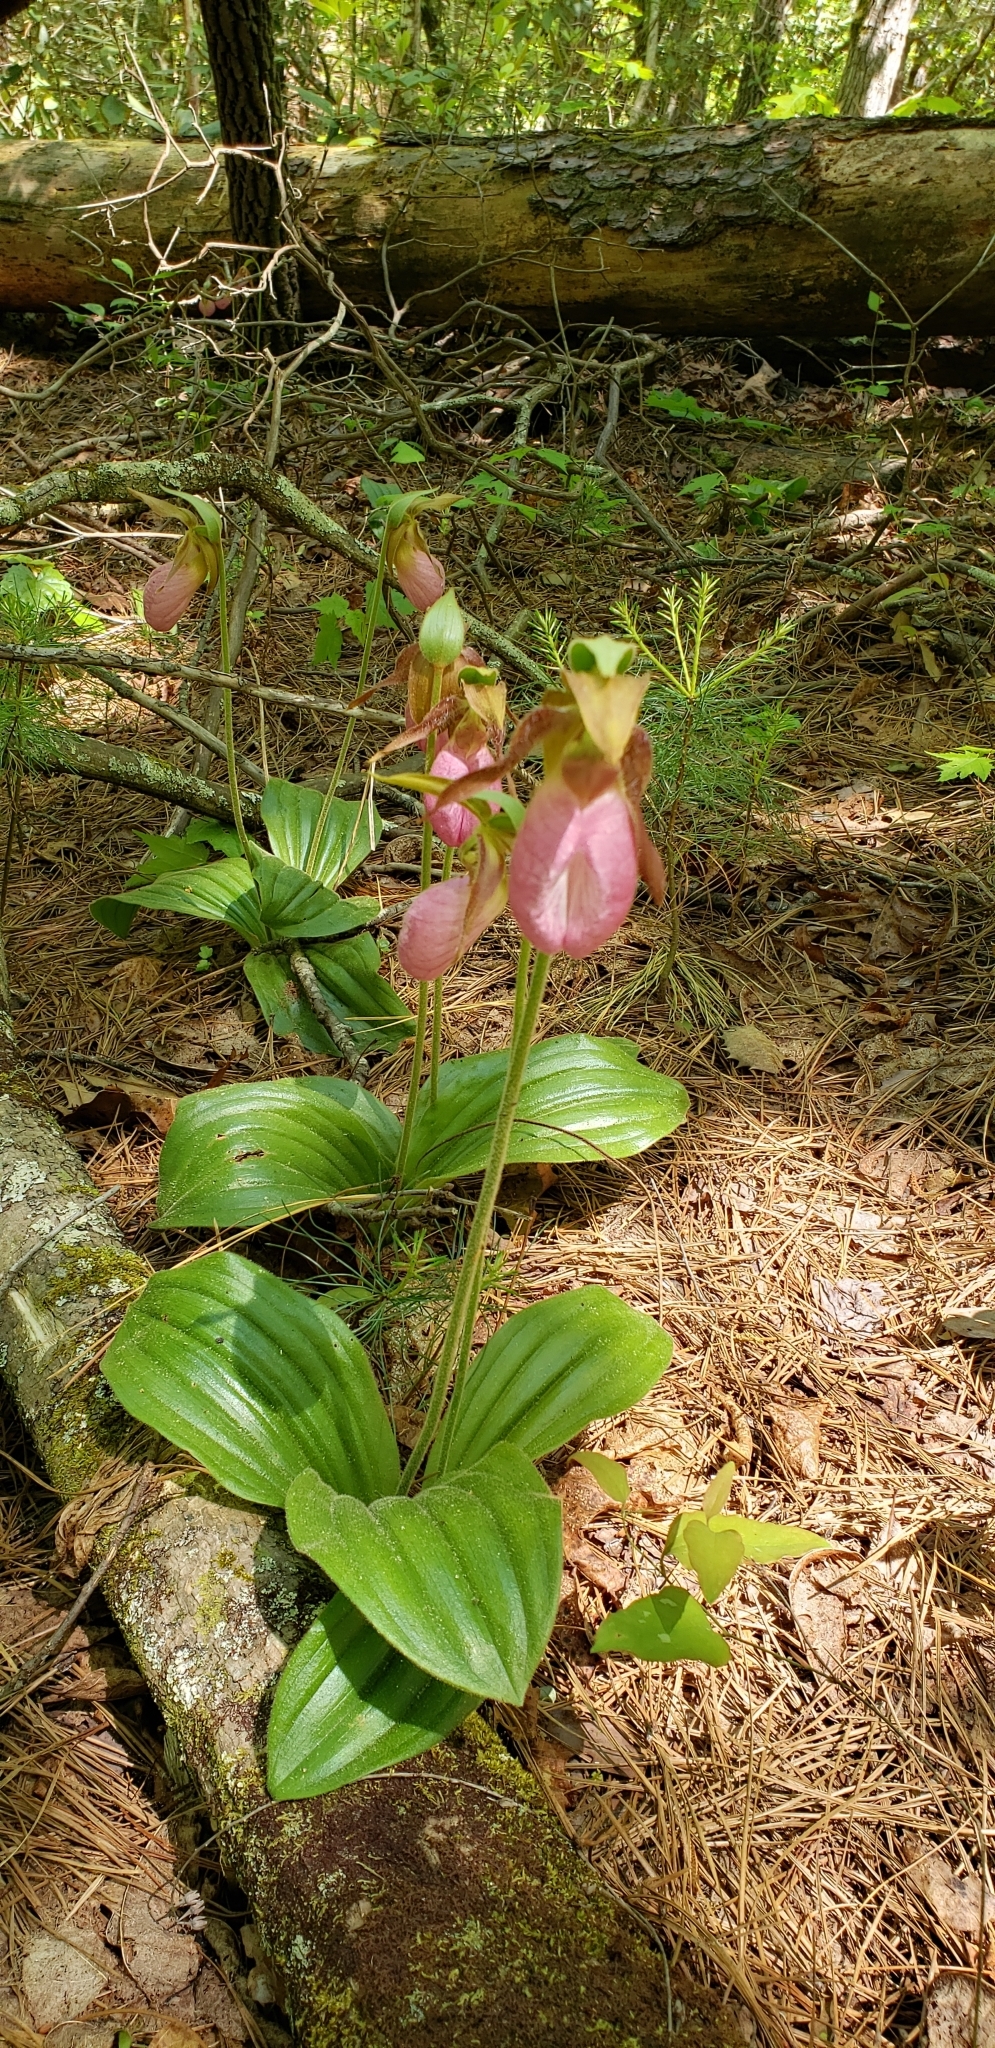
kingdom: Plantae
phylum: Tracheophyta
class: Liliopsida
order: Asparagales
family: Orchidaceae
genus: Cypripedium
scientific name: Cypripedium acaule
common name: Pink lady's-slipper
